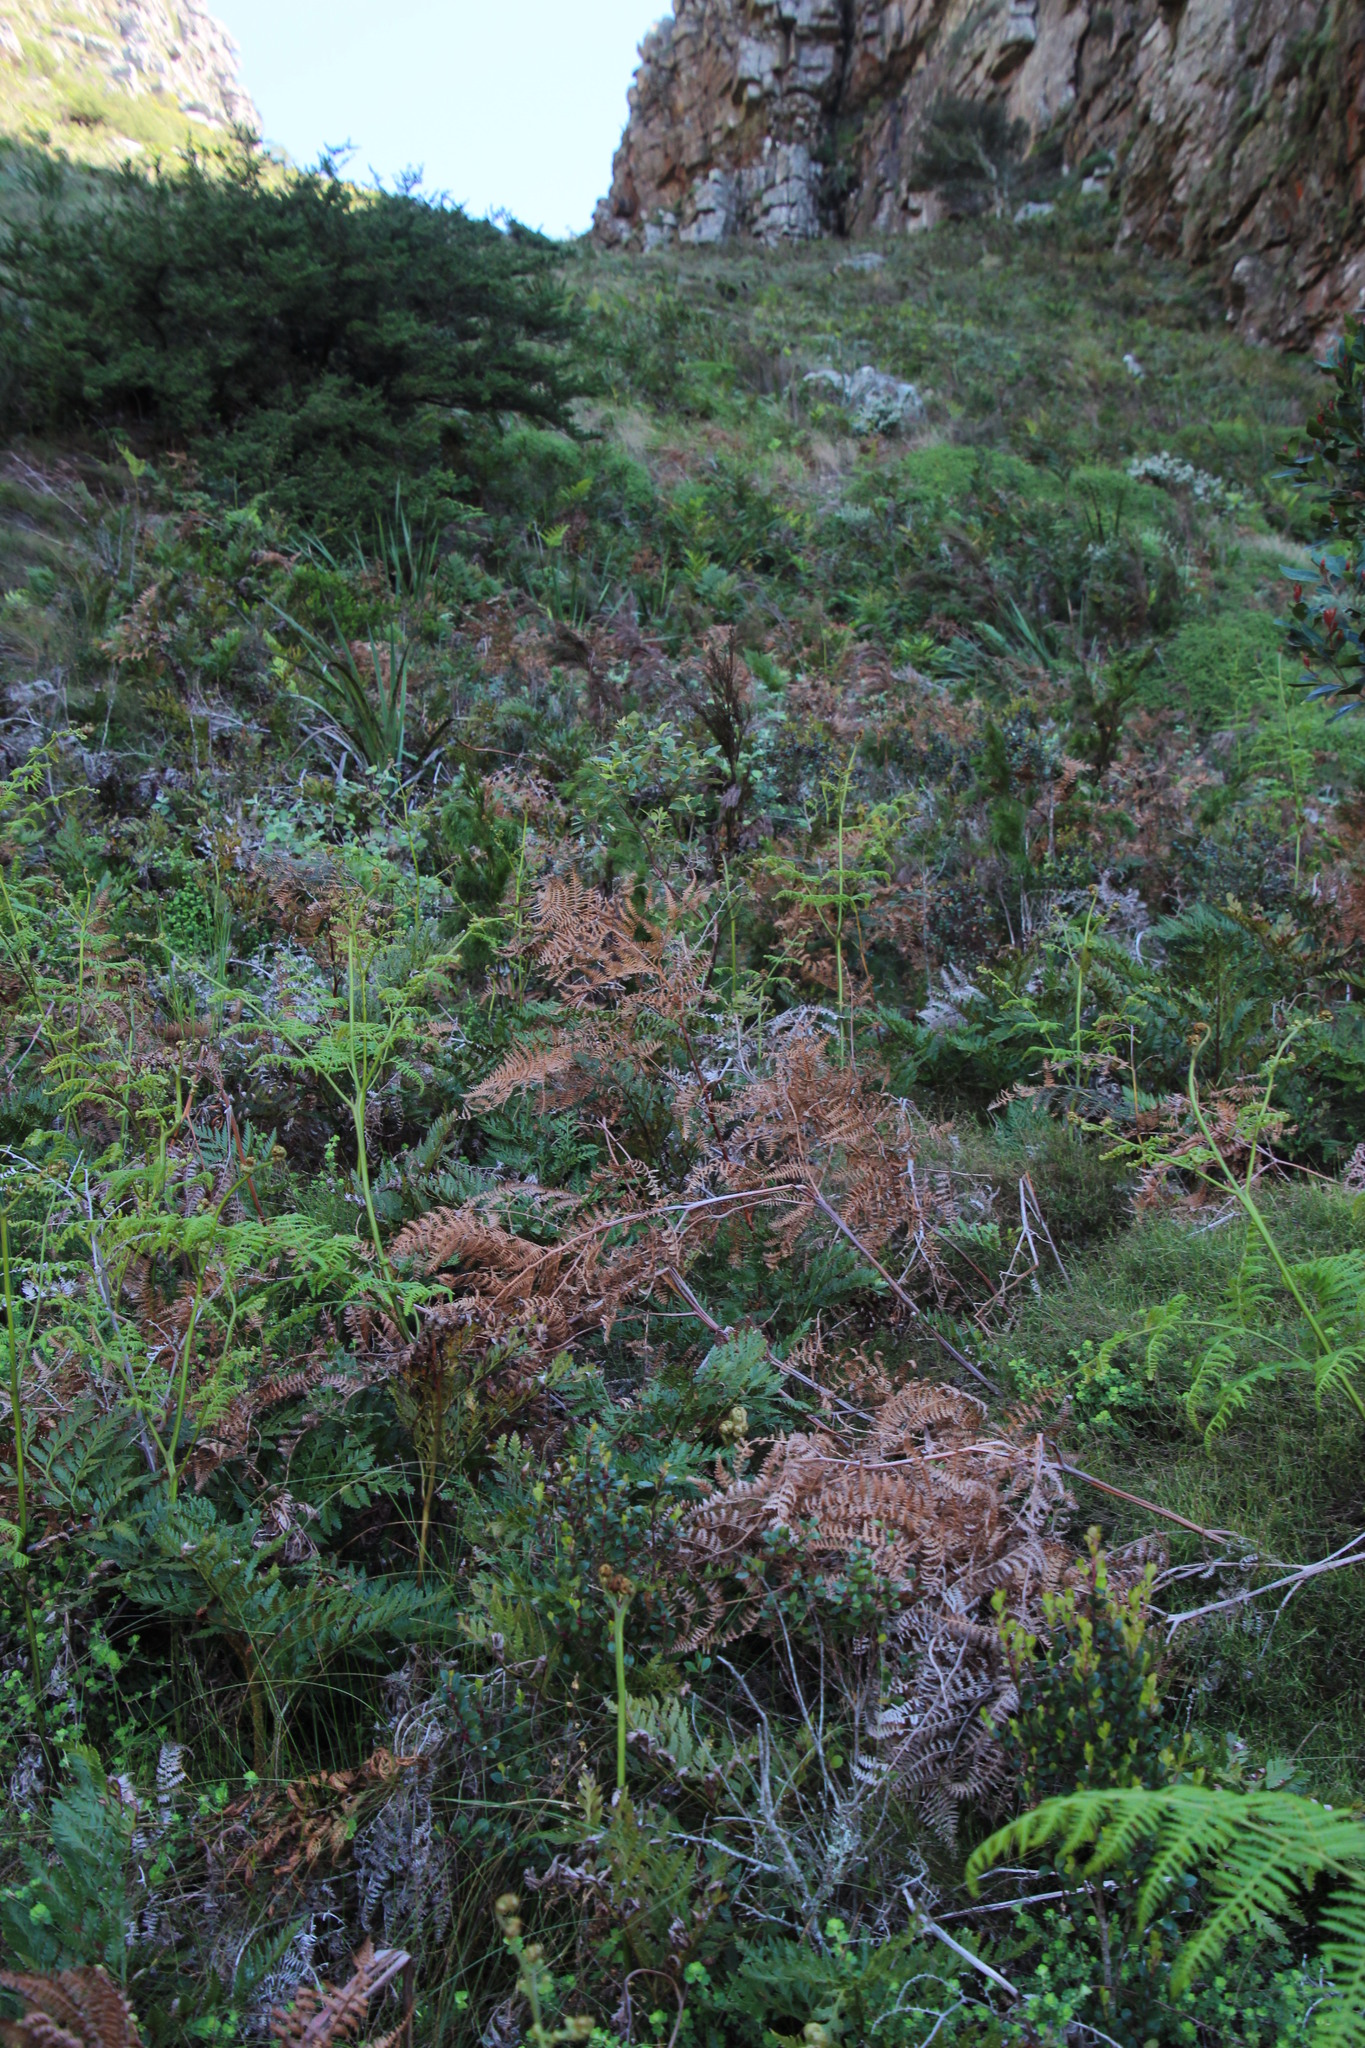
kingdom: Plantae
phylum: Tracheophyta
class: Magnoliopsida
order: Rosales
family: Rosaceae
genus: Cliffortia
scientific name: Cliffortia dentata
